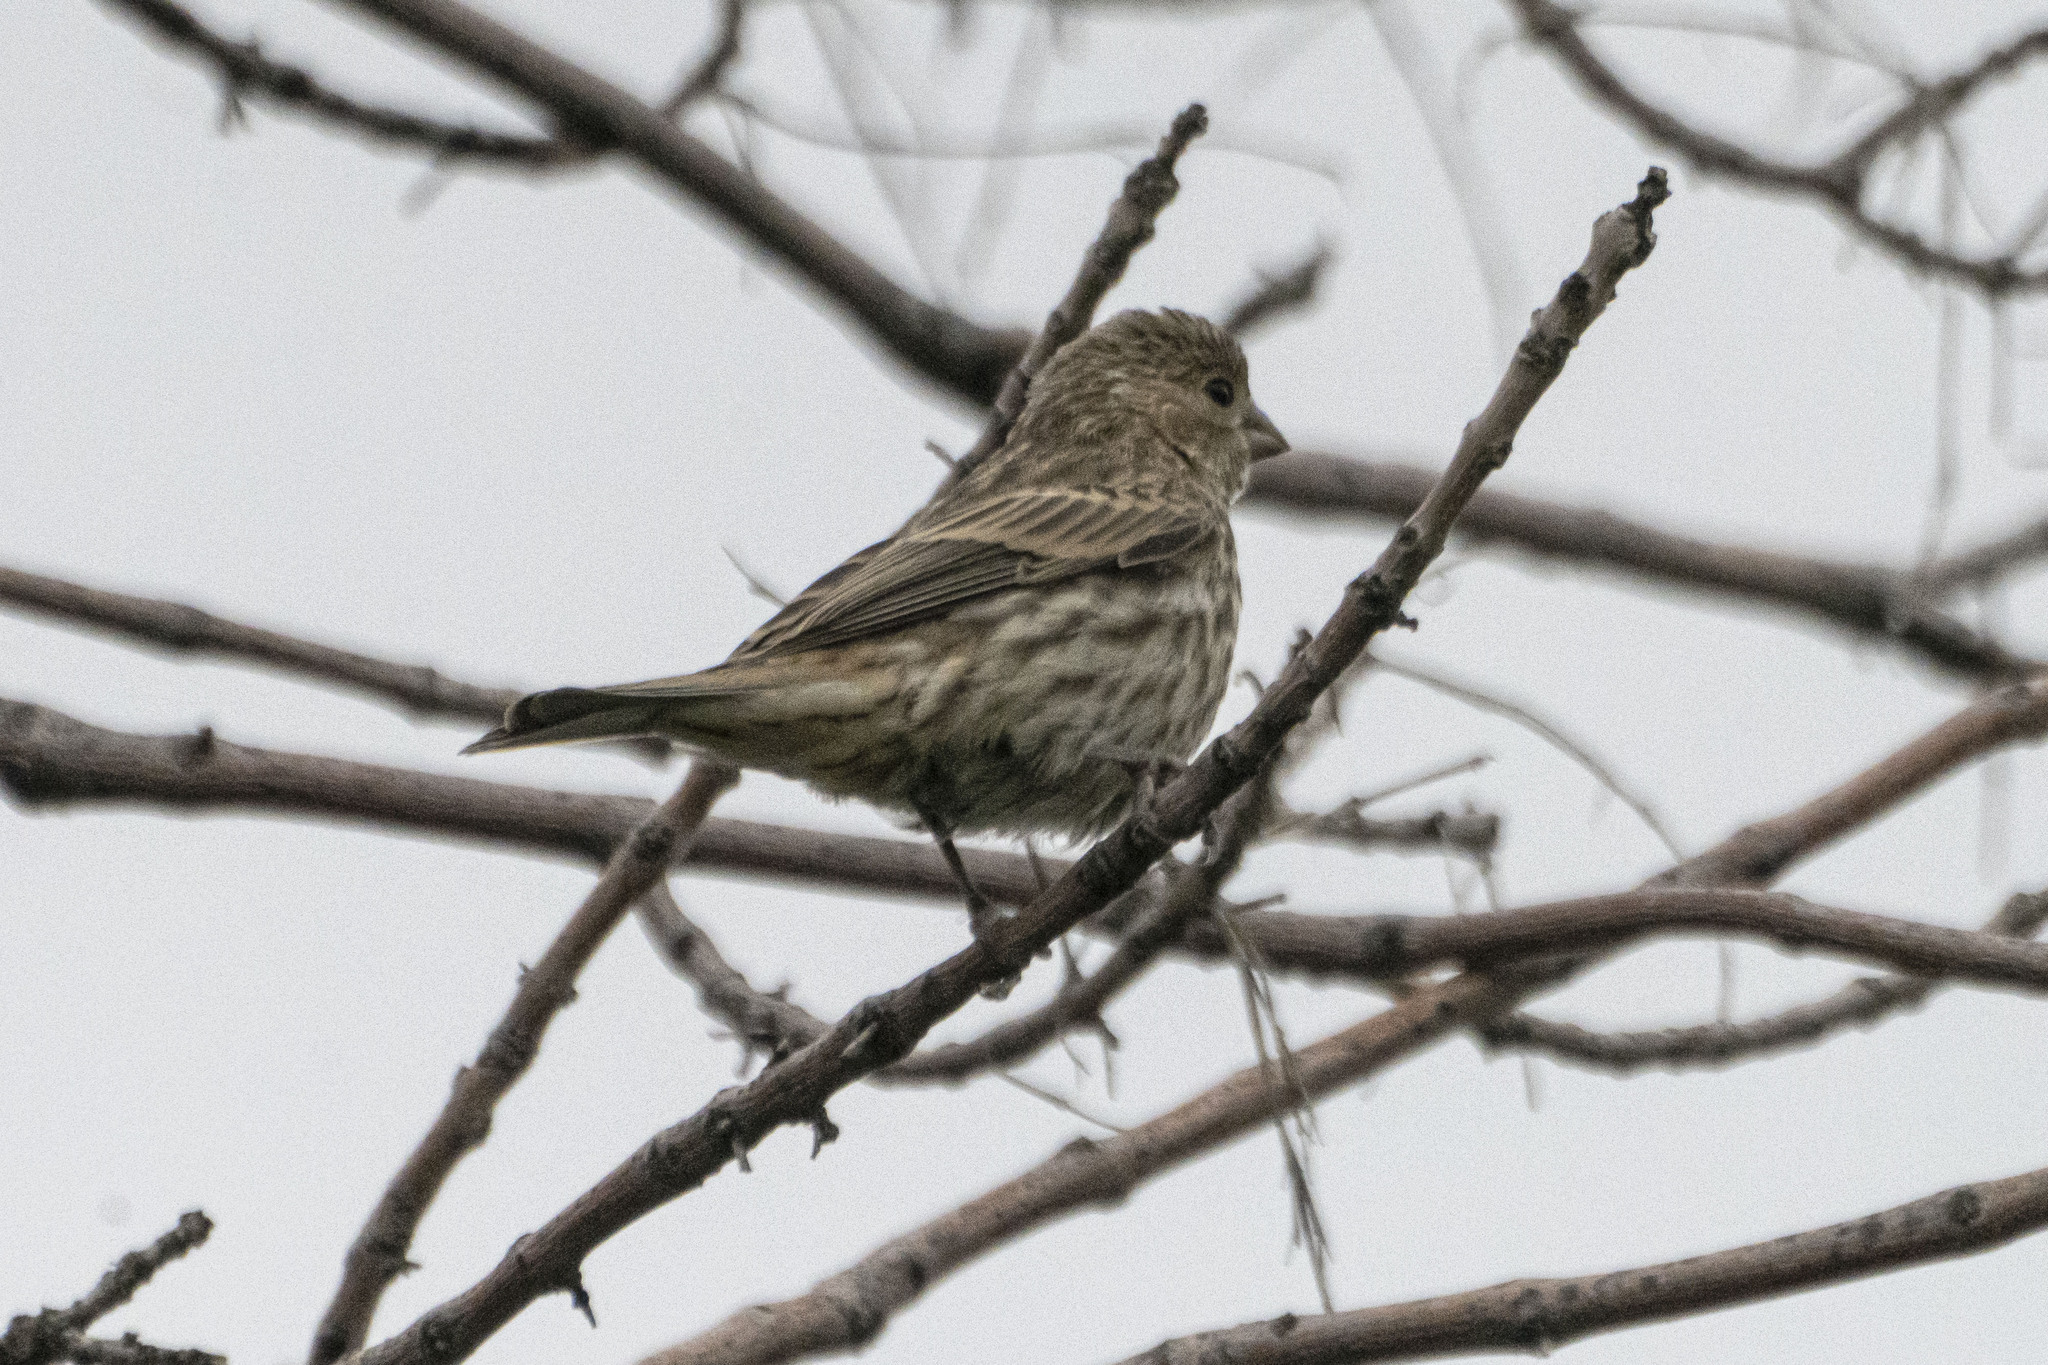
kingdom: Animalia
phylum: Chordata
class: Aves
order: Passeriformes
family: Fringillidae
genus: Haemorhous
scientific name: Haemorhous mexicanus
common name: House finch
